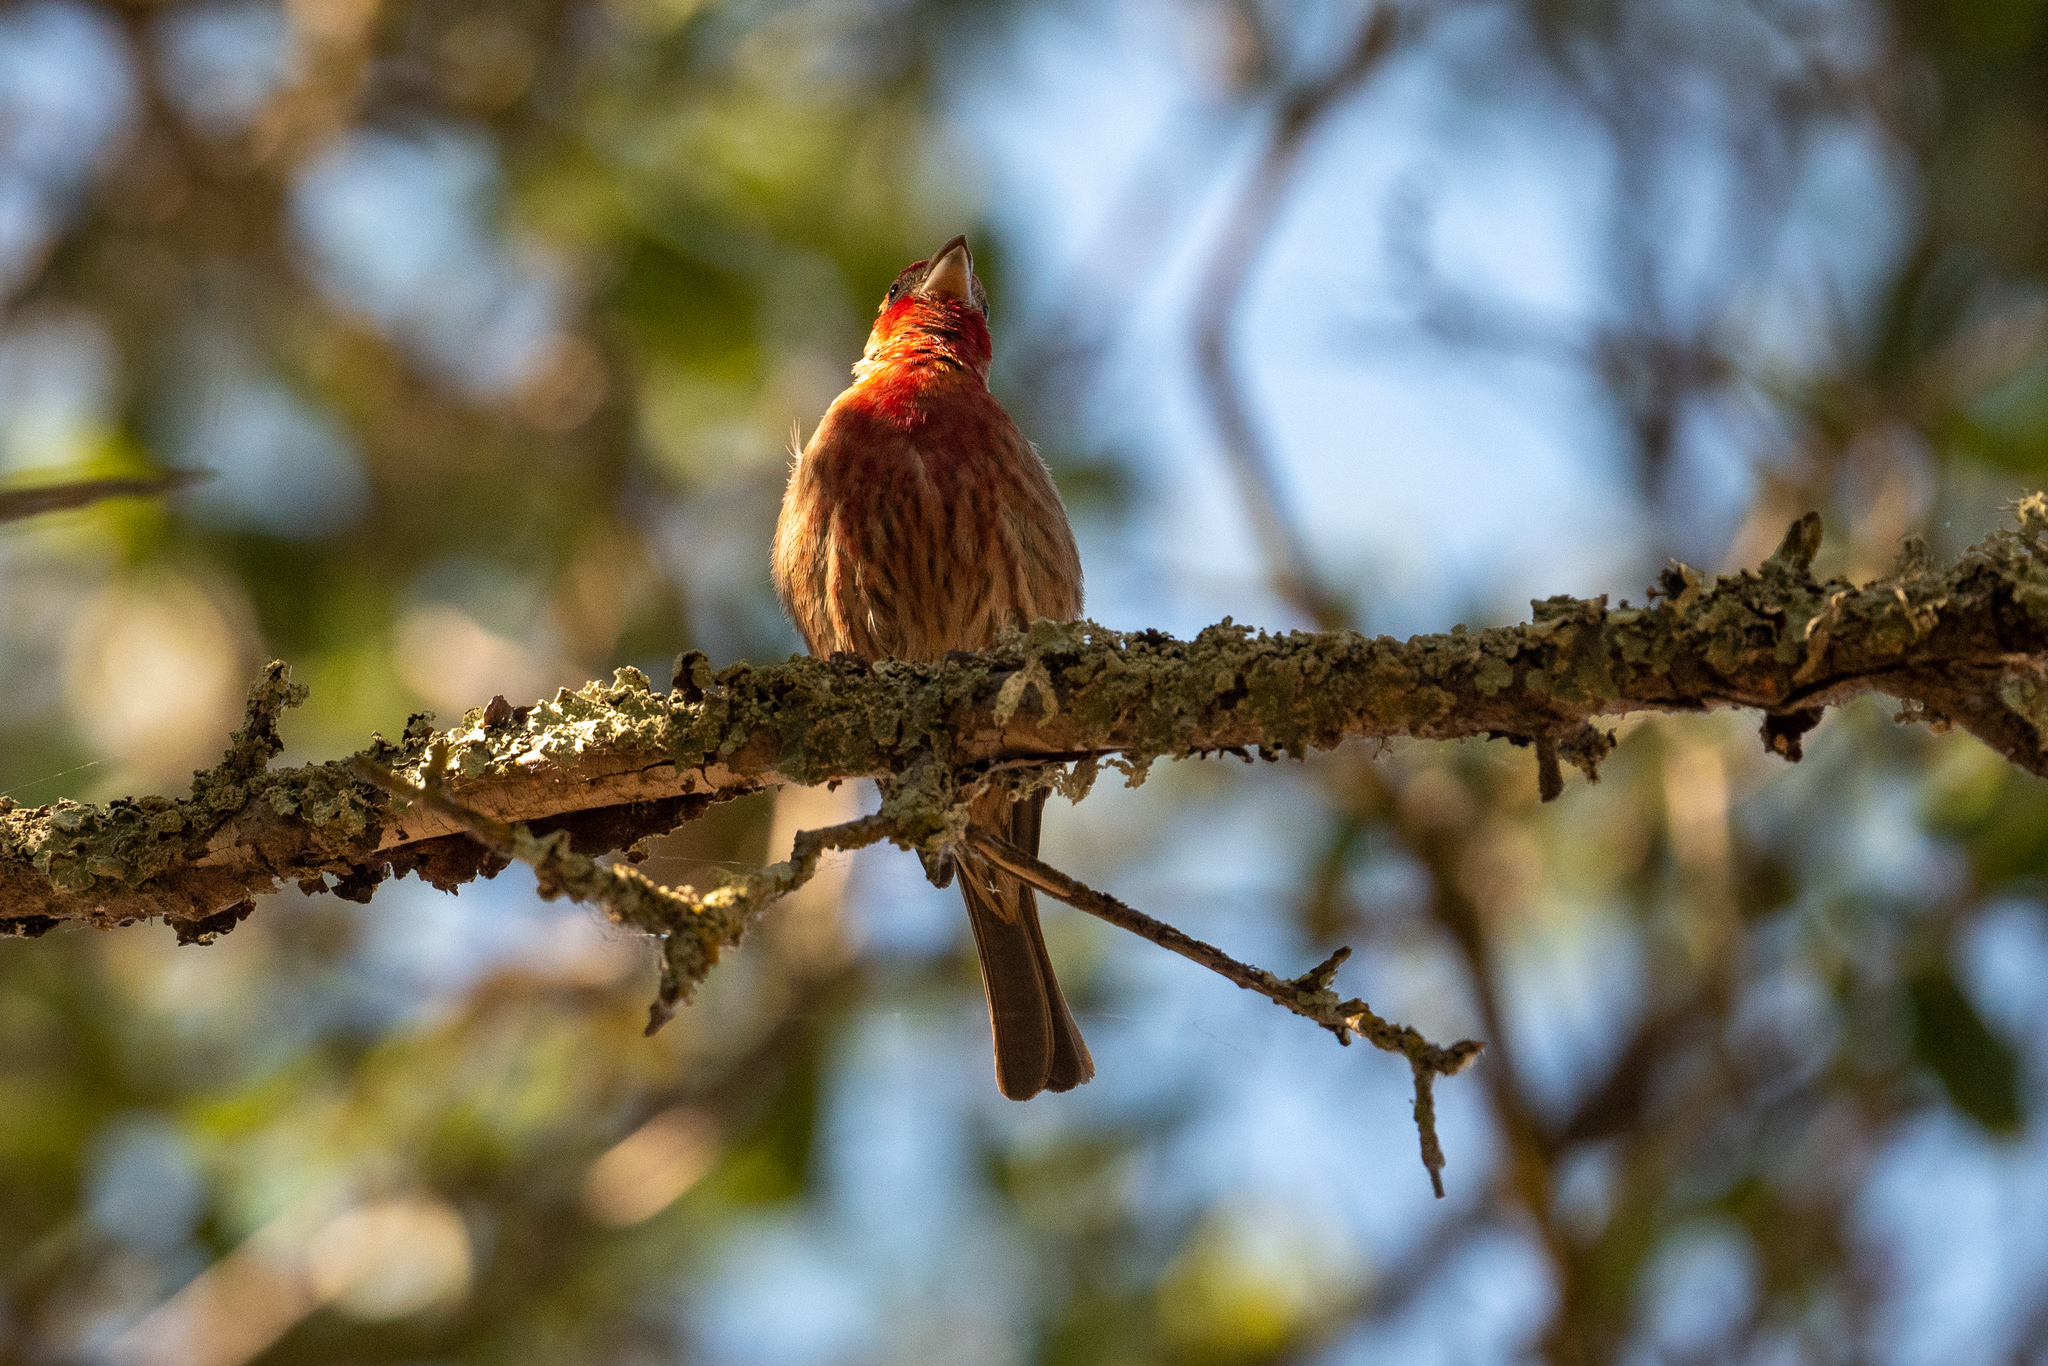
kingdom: Animalia
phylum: Chordata
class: Aves
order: Passeriformes
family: Fringillidae
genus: Haemorhous
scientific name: Haemorhous mexicanus
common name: House finch
